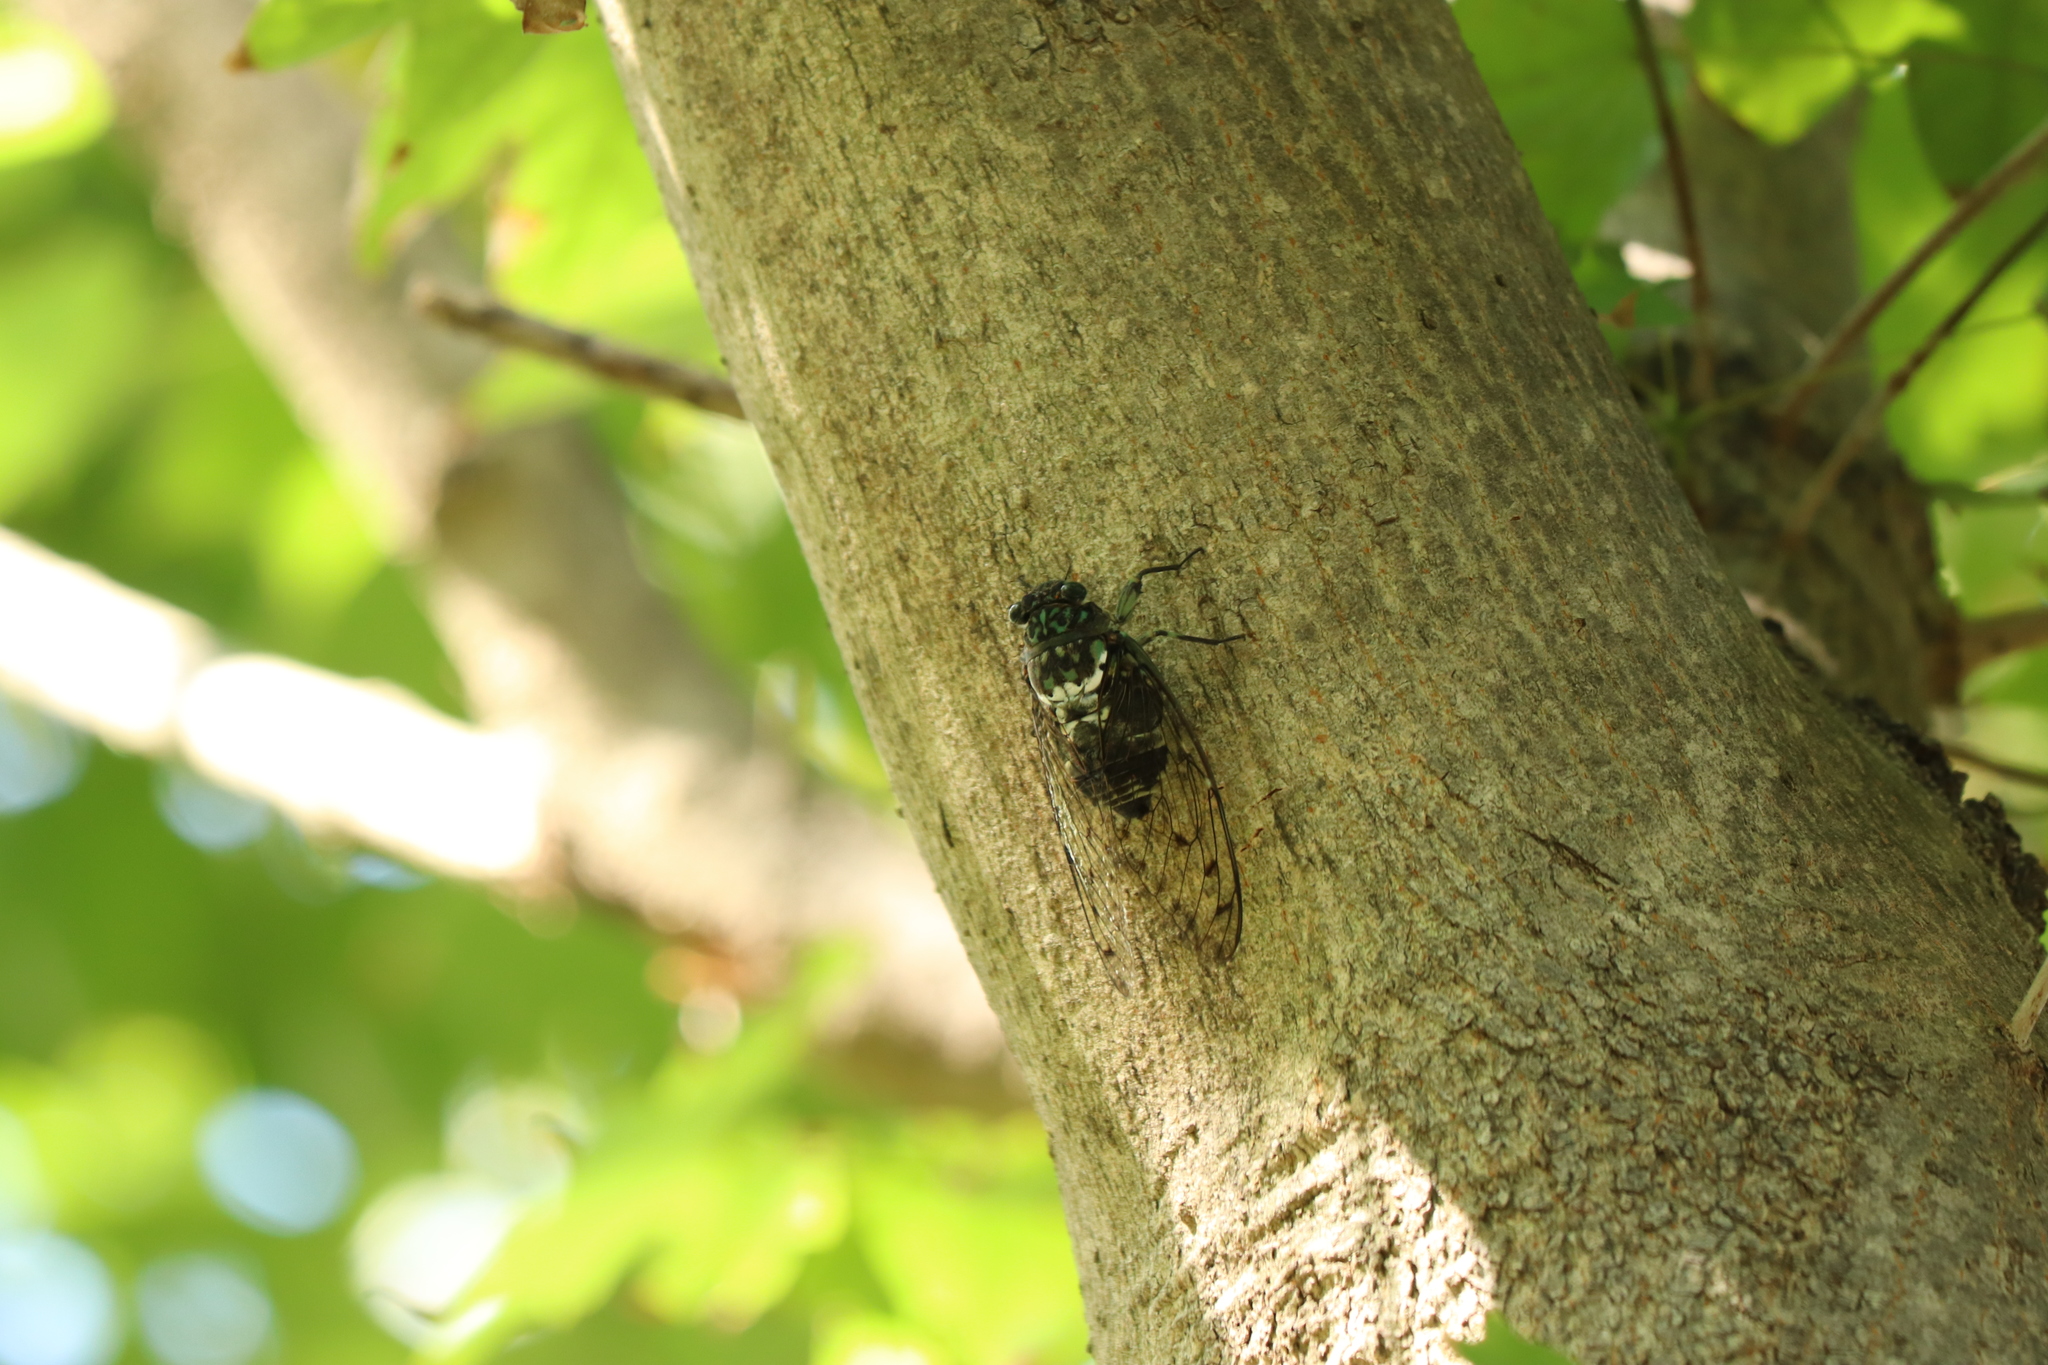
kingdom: Animalia
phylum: Arthropoda
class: Insecta
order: Hemiptera
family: Cicadidae
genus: Hyalessa
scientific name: Hyalessa maculaticollis
